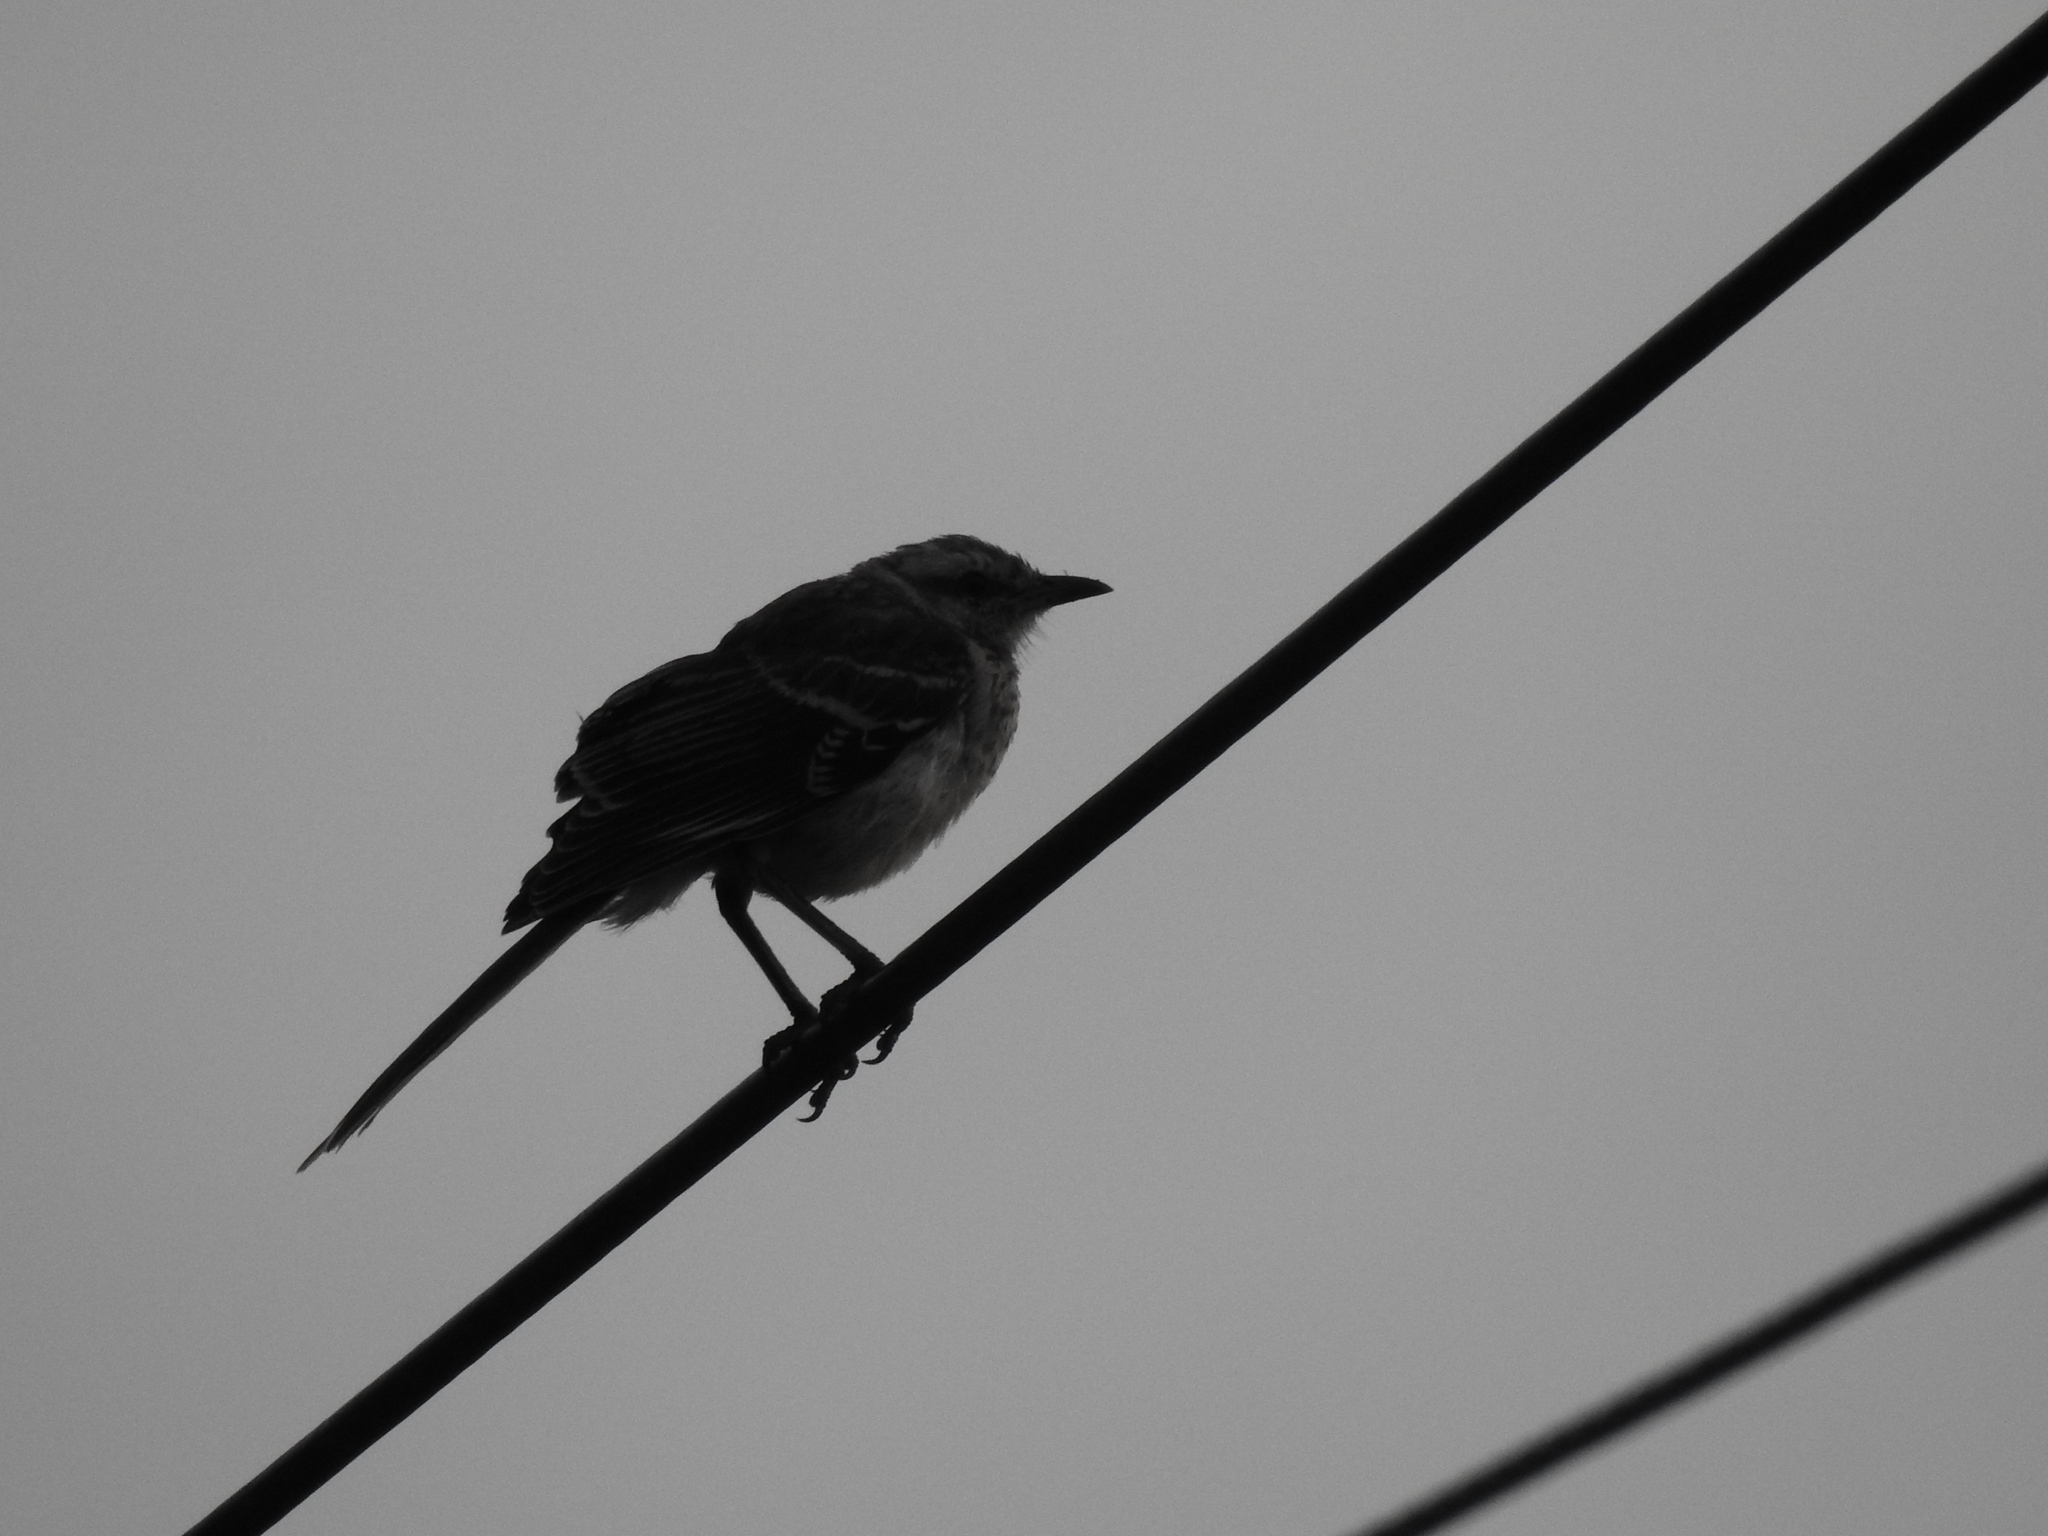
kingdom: Animalia
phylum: Chordata
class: Aves
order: Passeriformes
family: Mimidae
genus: Mimus
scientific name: Mimus saturninus
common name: Chalk-browed mockingbird
